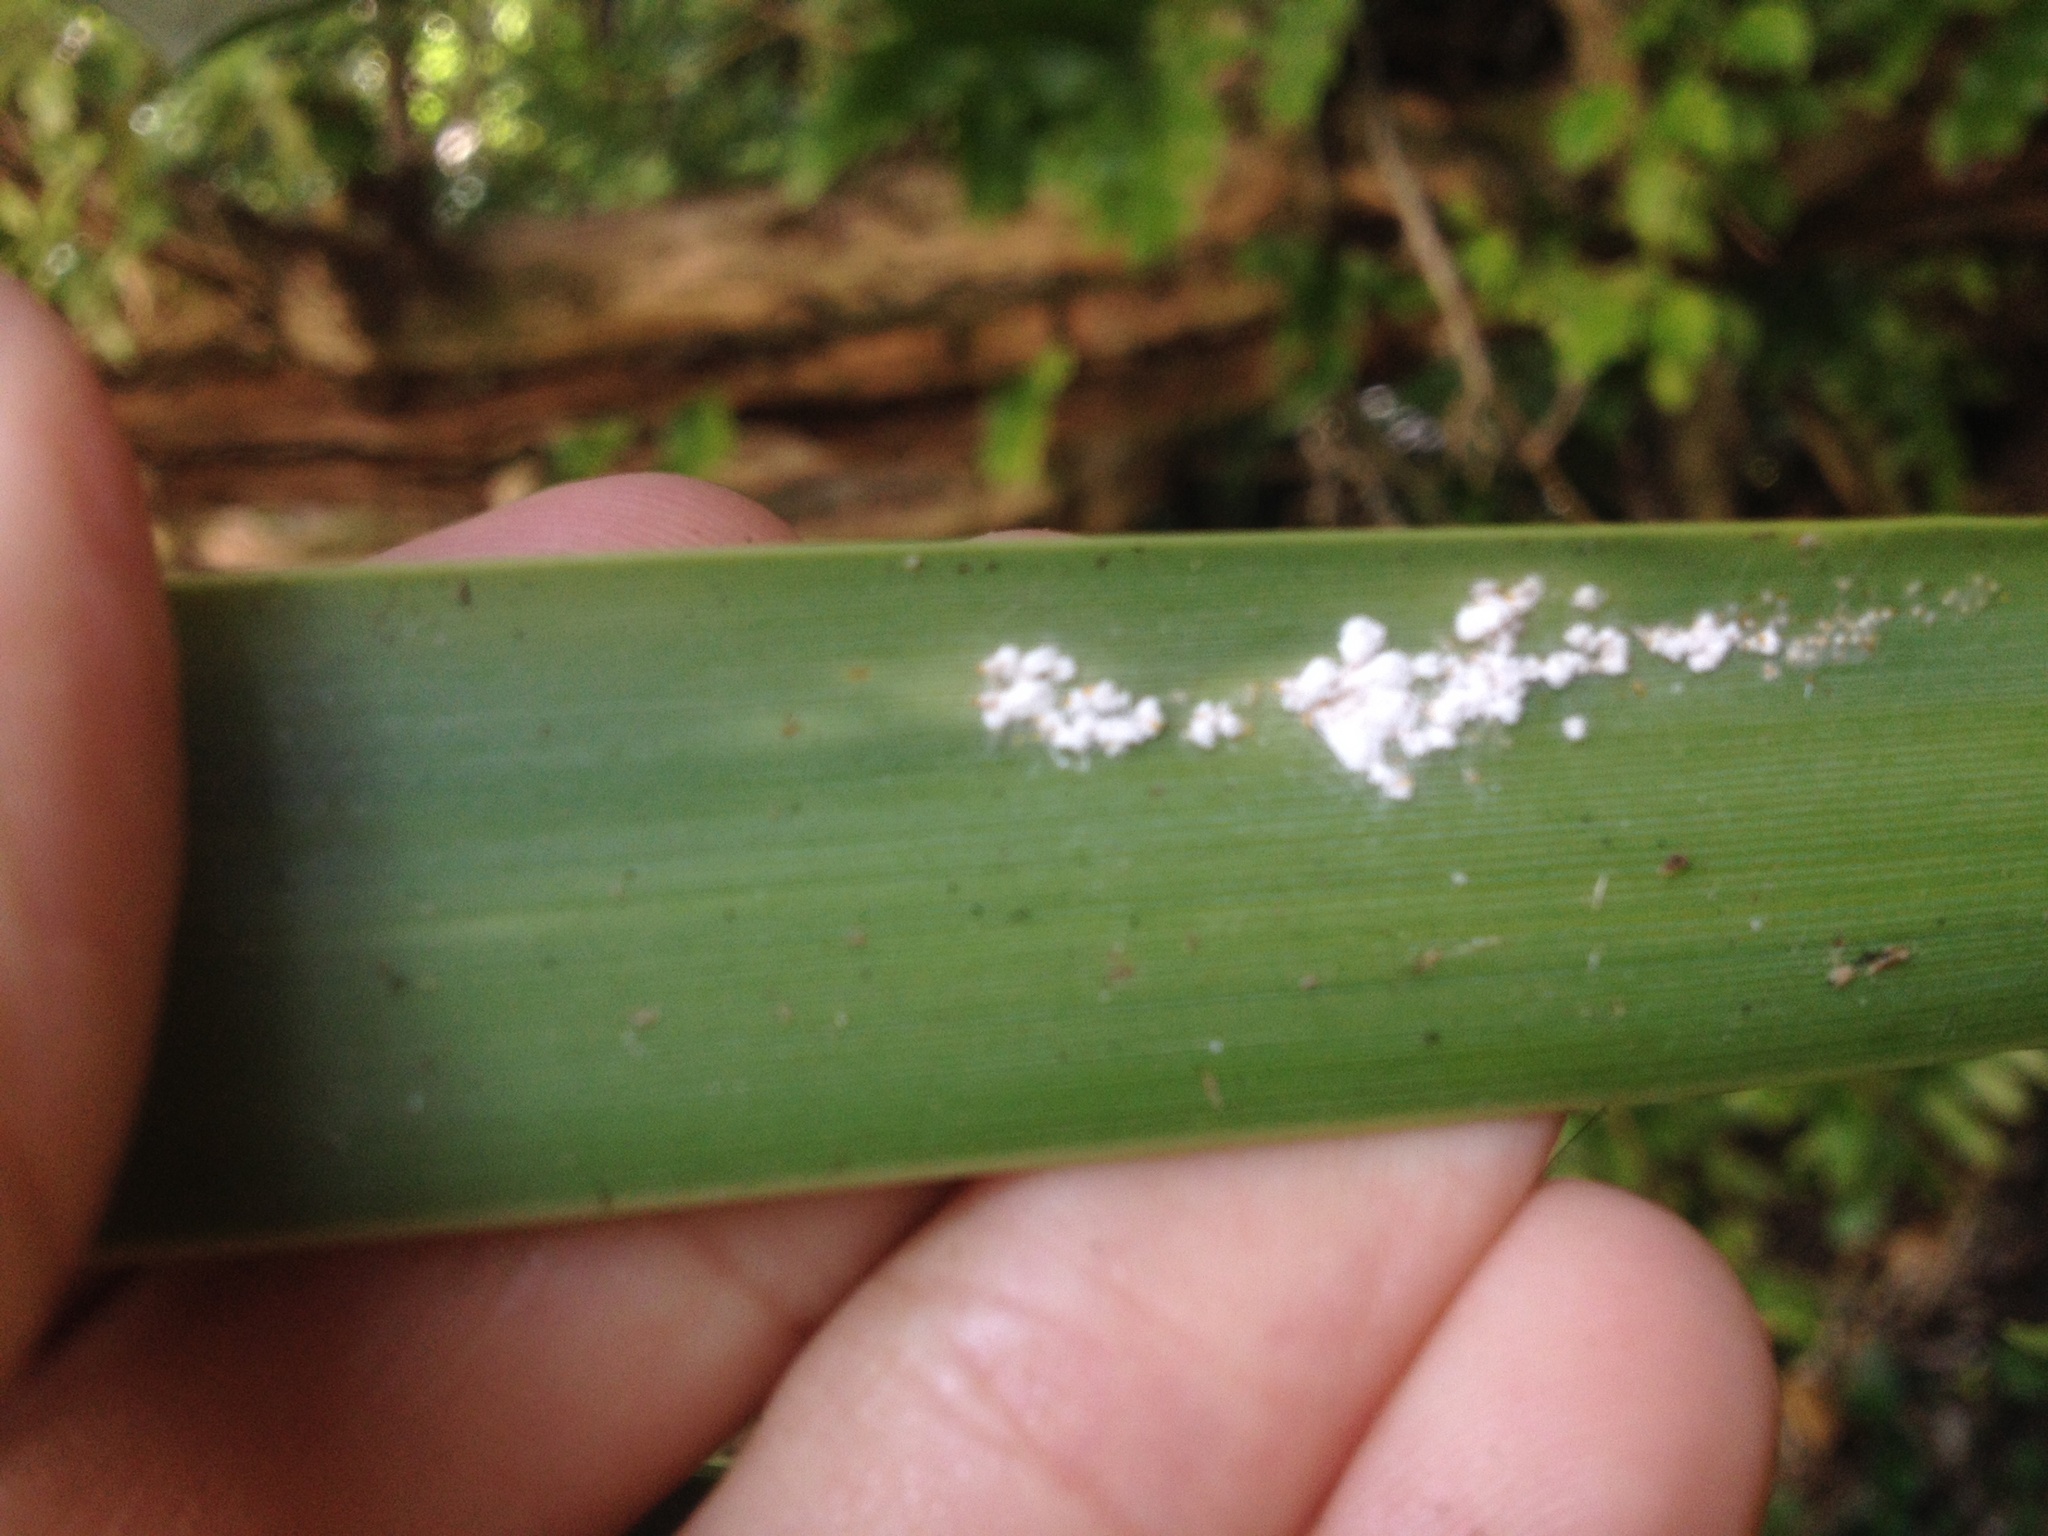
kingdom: Animalia
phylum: Arthropoda
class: Insecta
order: Hemiptera
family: Diaspididae
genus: Poliaspis
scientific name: Poliaspis floccosa
